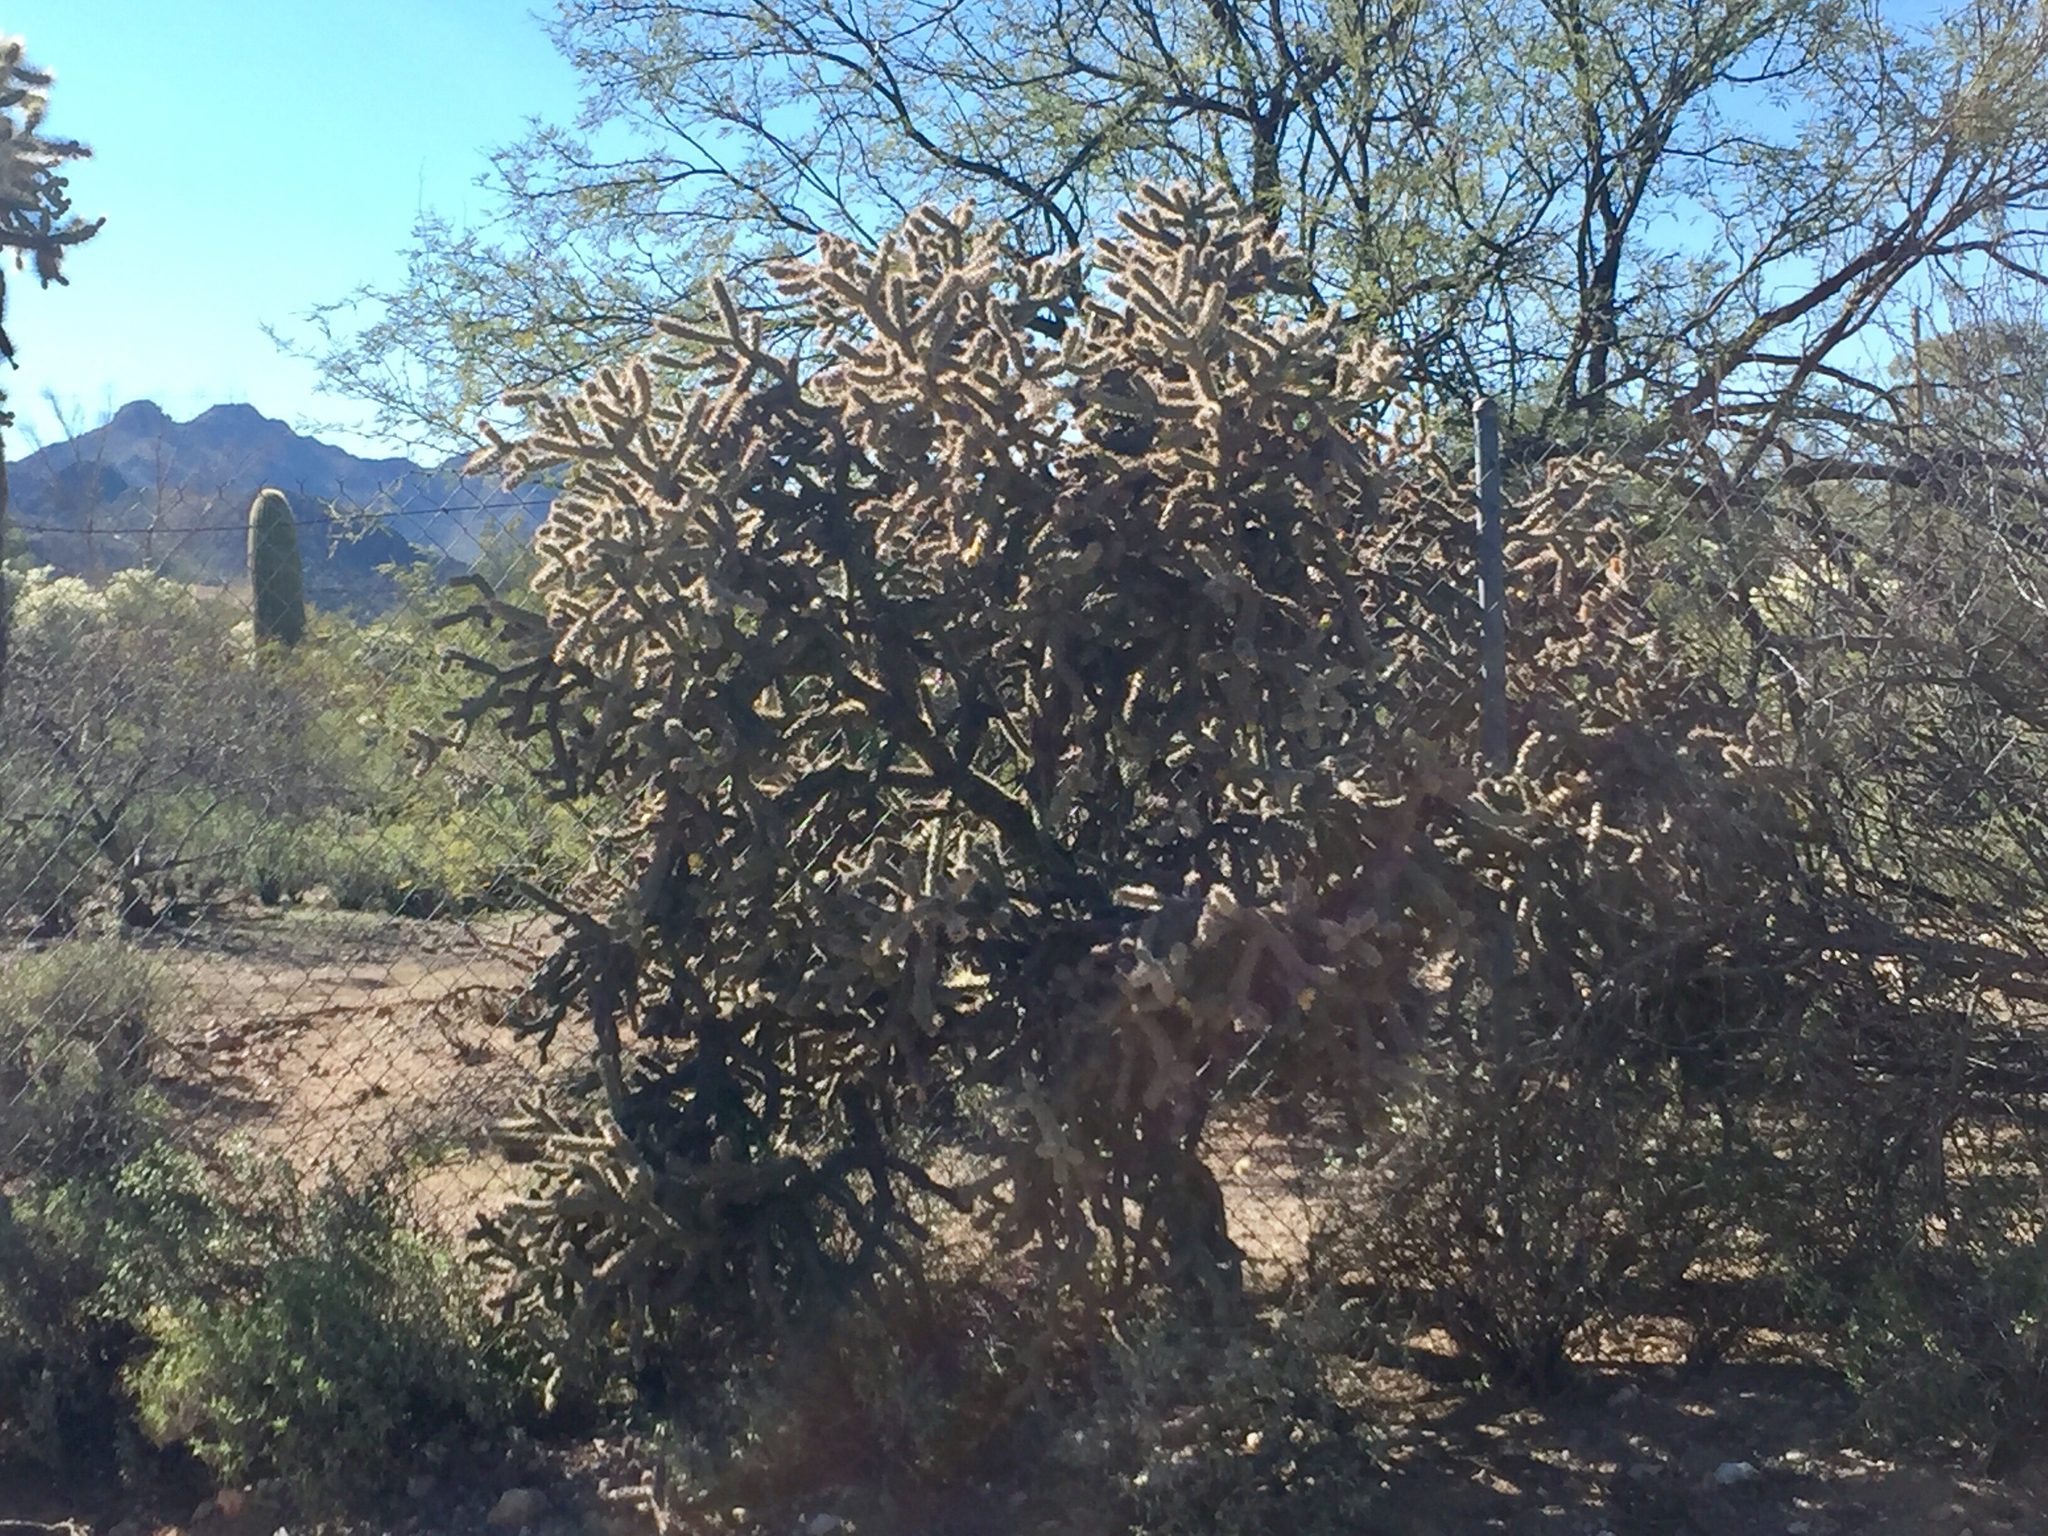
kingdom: Plantae
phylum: Tracheophyta
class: Magnoliopsida
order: Caryophyllales
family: Cactaceae
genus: Cylindropuntia
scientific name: Cylindropuntia acanthocarpa
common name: Buckhorn cholla
